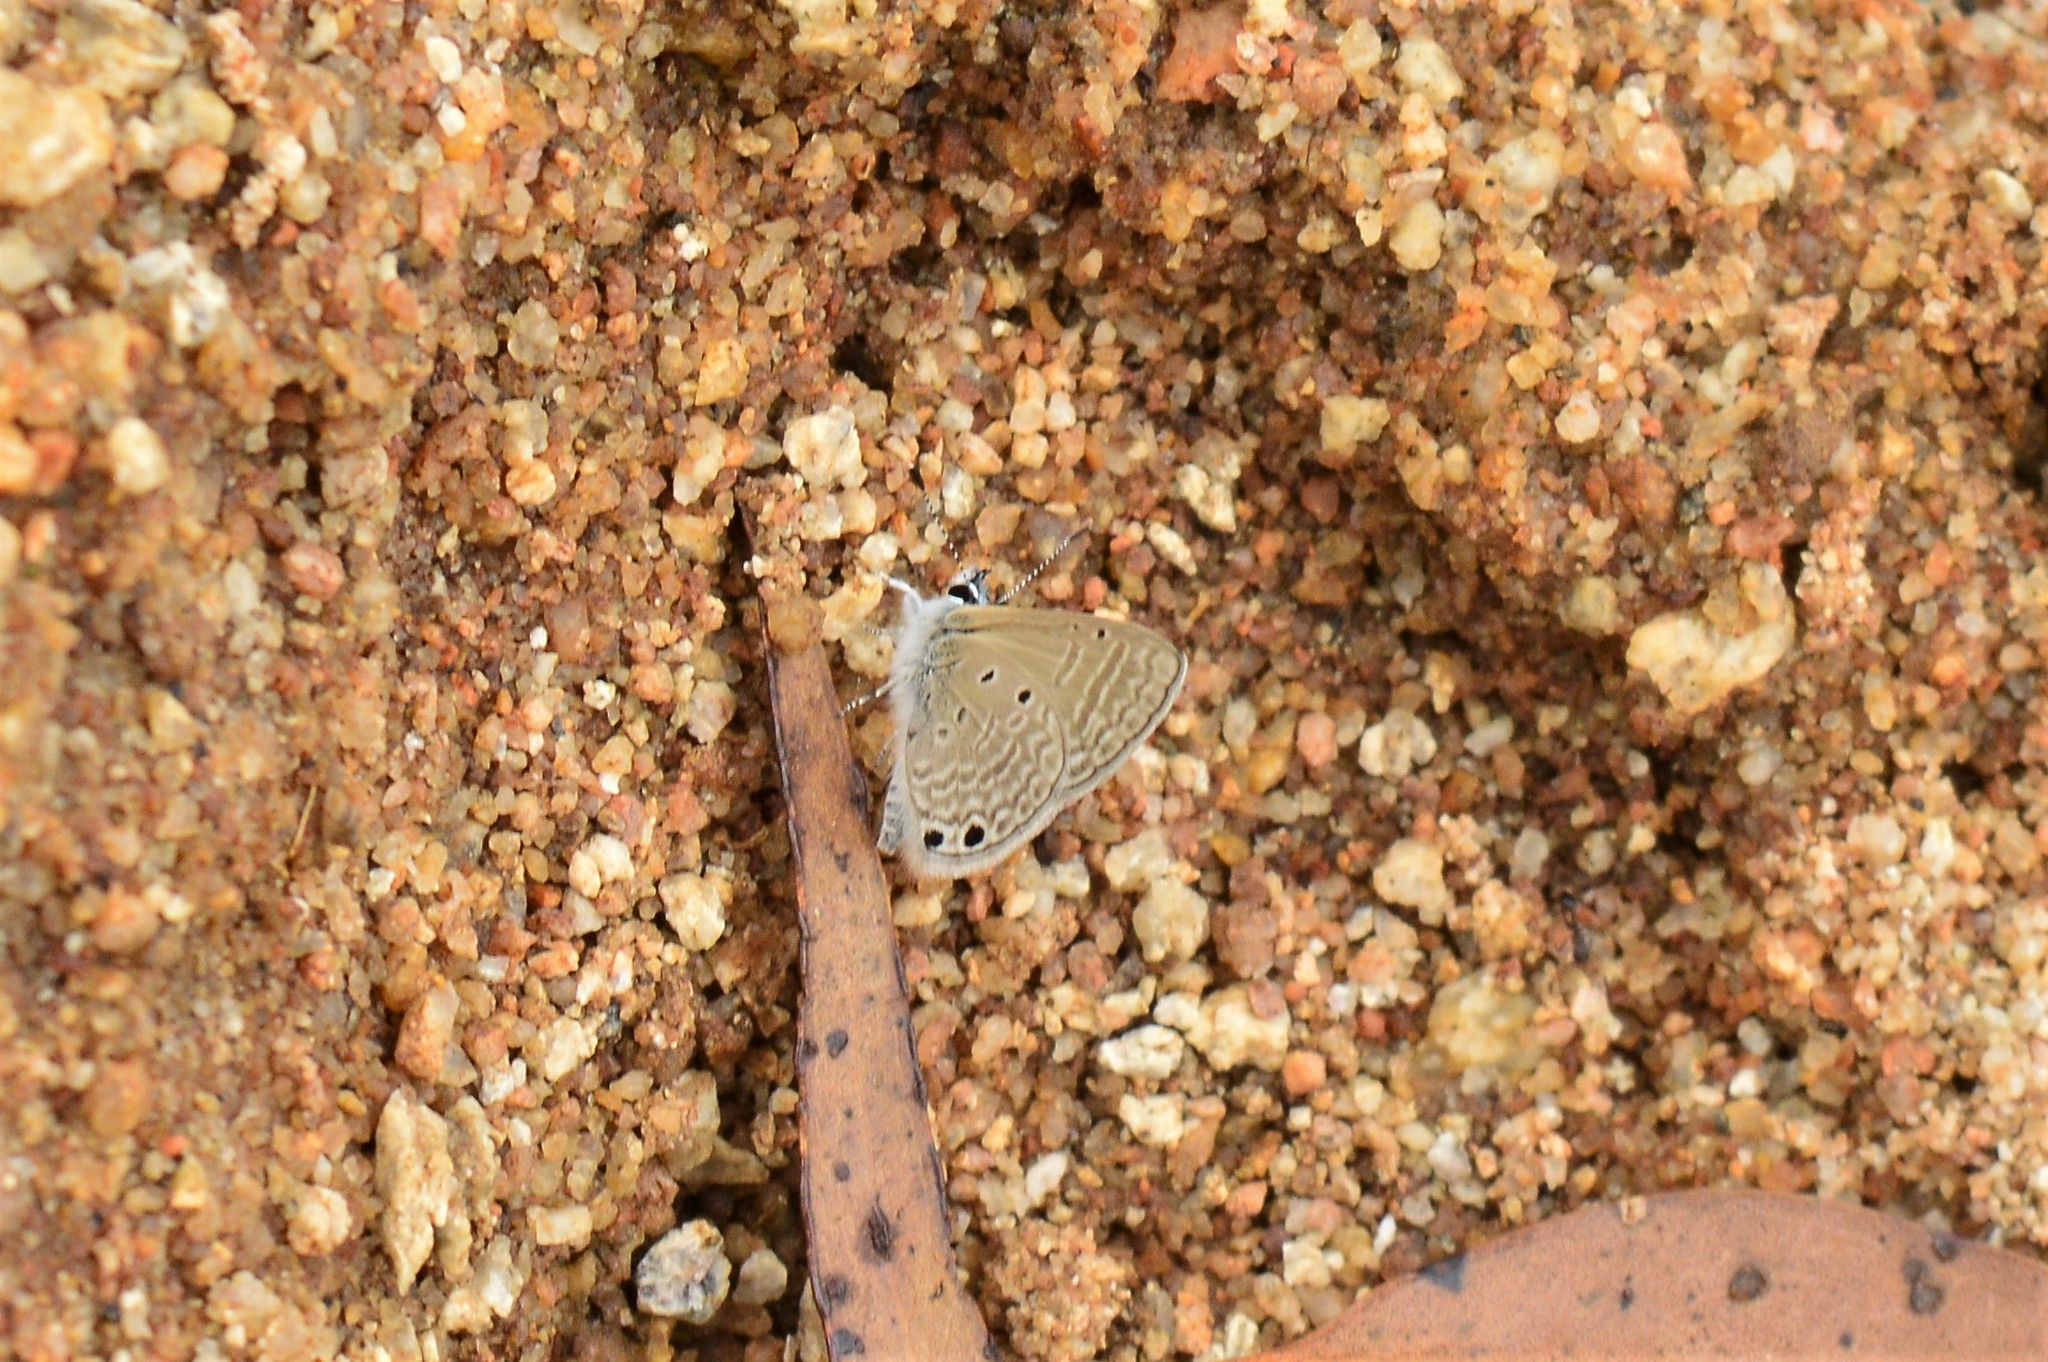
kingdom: Animalia
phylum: Arthropoda
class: Insecta
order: Lepidoptera
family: Lycaenidae
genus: Azanus
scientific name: Azanus ubaldus
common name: Desert babul blue
